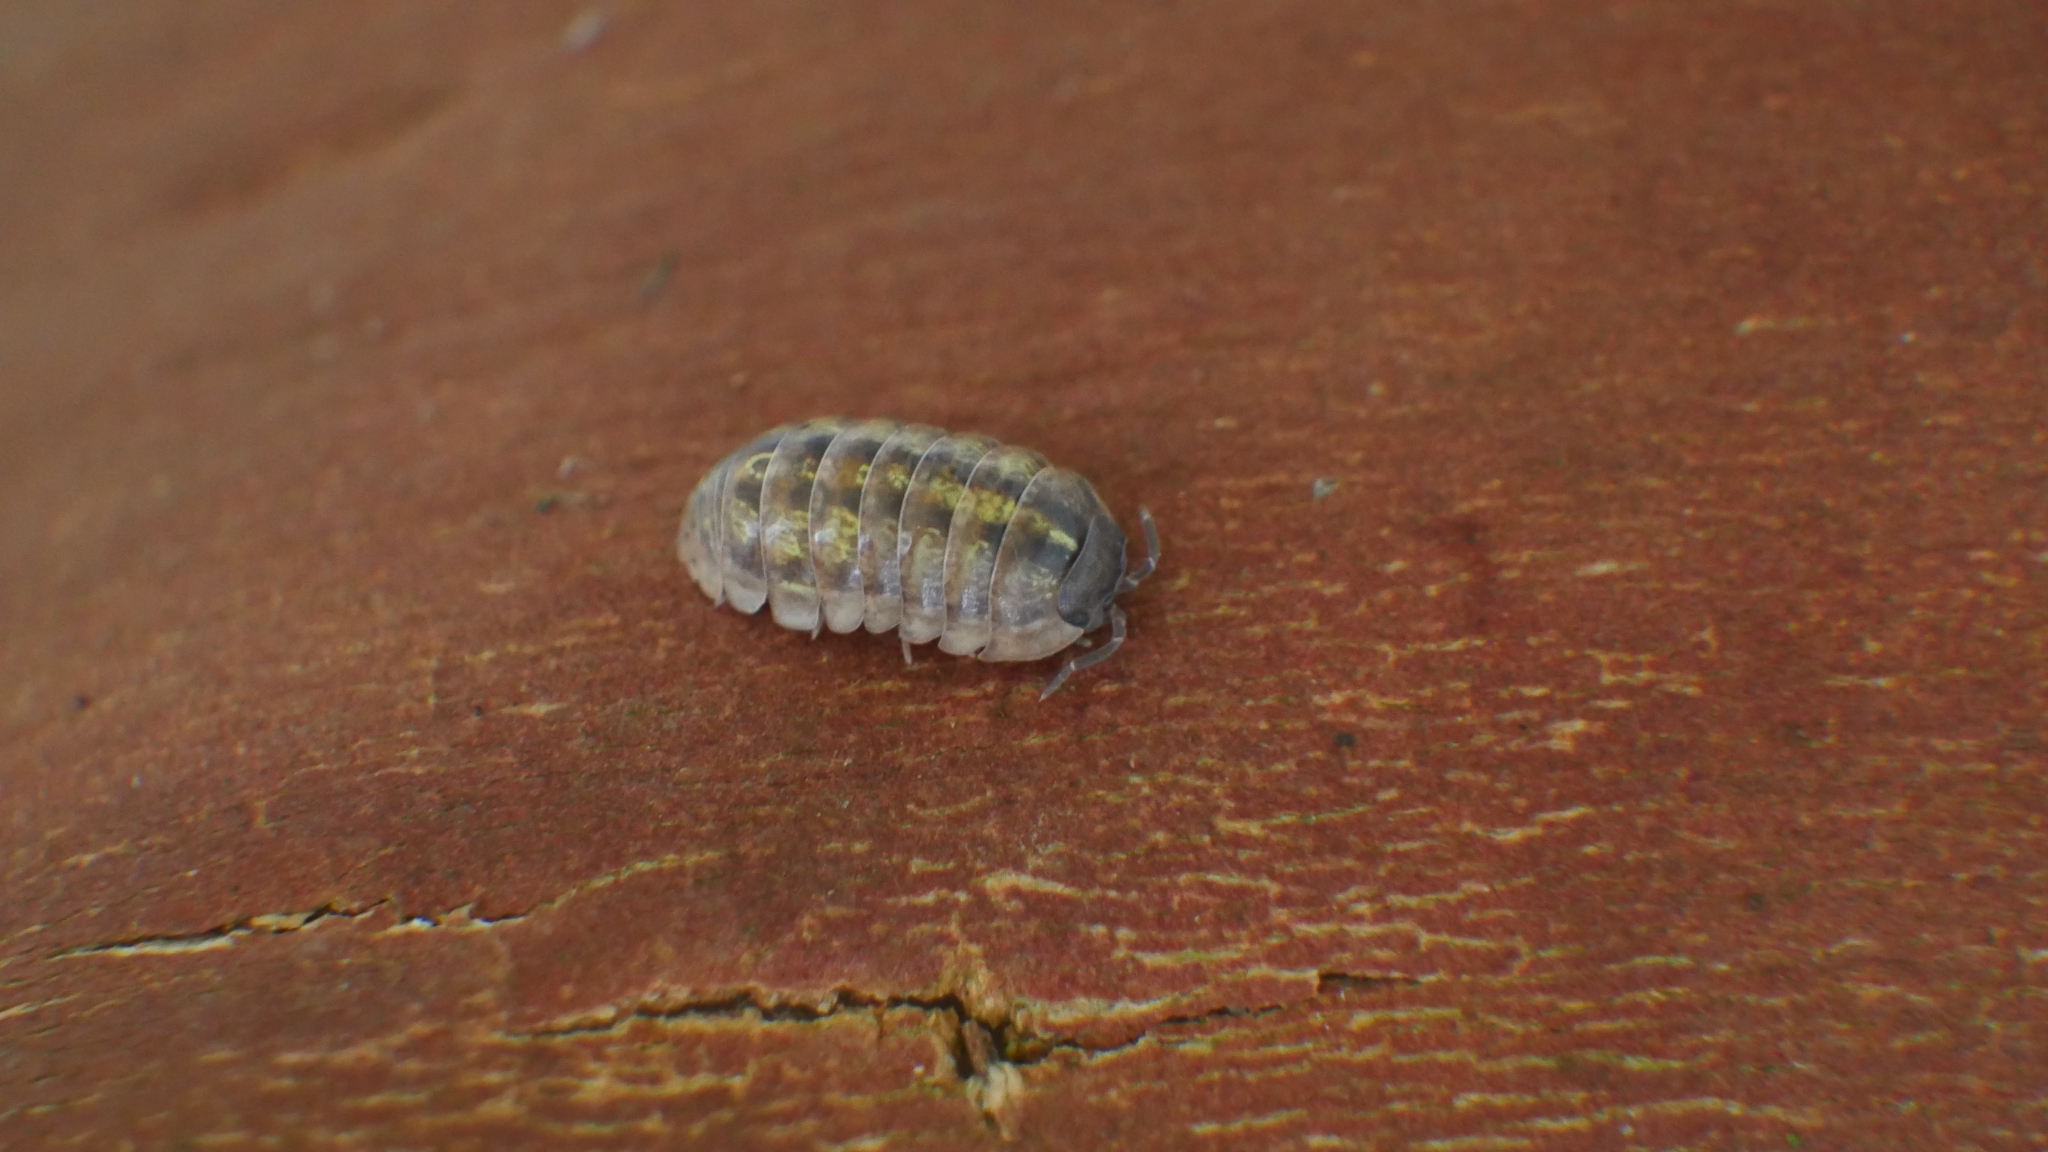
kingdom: Animalia
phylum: Arthropoda
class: Malacostraca
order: Isopoda
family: Armadillidiidae
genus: Armadillidium
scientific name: Armadillidium vulgare
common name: Common pill woodlouse
